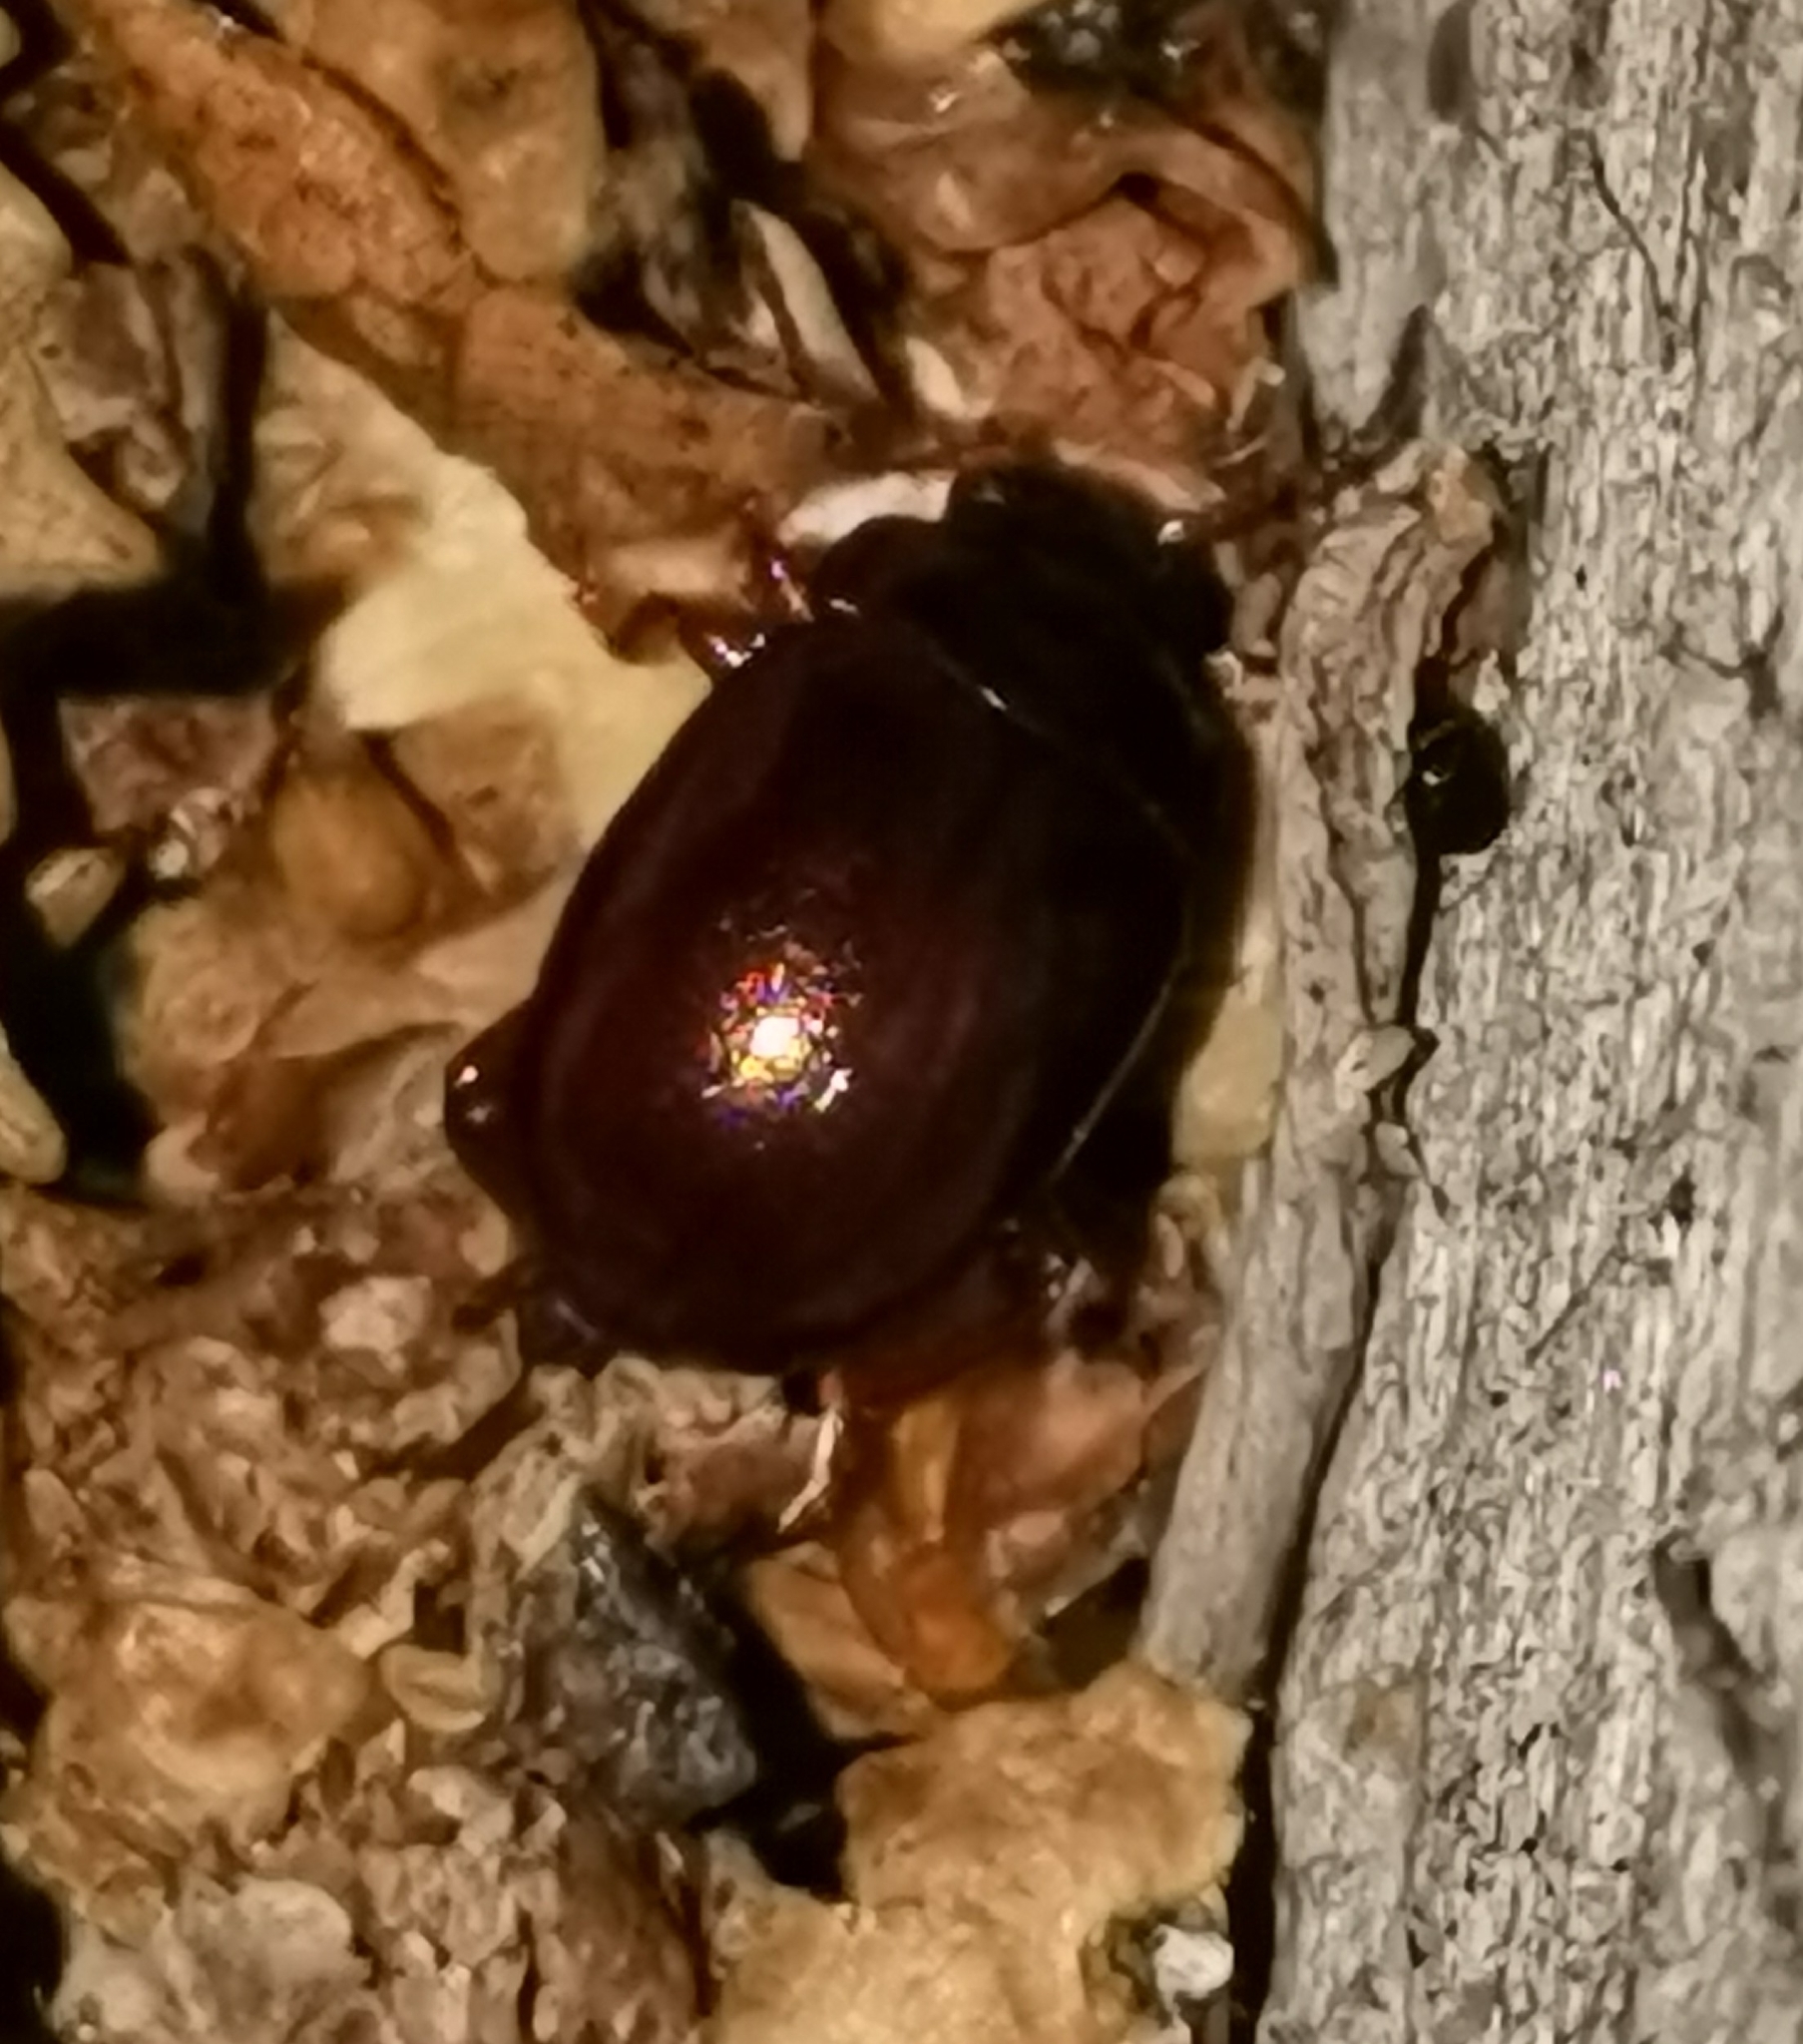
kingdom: Animalia
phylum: Arthropoda
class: Insecta
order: Coleoptera
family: Chrysomelidae
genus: Chrysolina
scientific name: Chrysolina staphylaea
